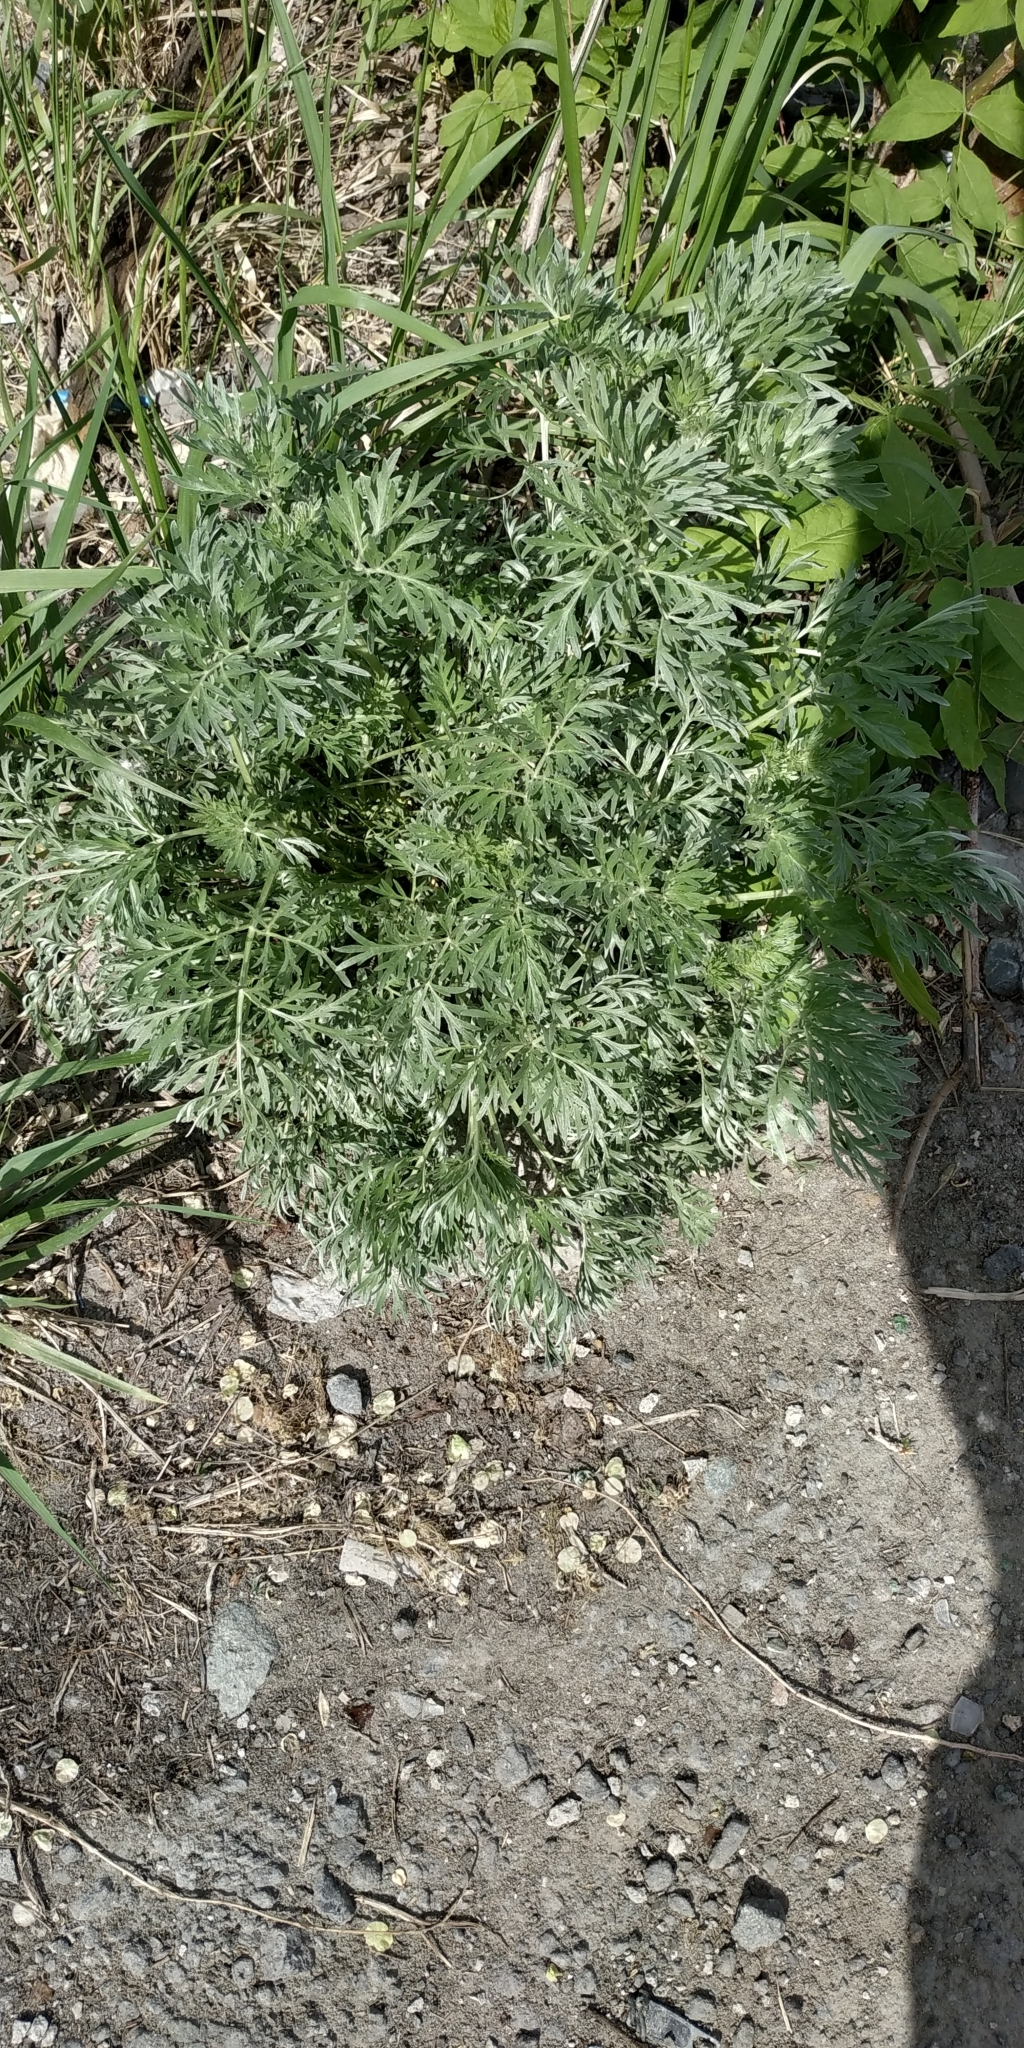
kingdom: Plantae
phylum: Tracheophyta
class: Magnoliopsida
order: Asterales
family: Asteraceae
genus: Artemisia
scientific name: Artemisia absinthium
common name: Wormwood
